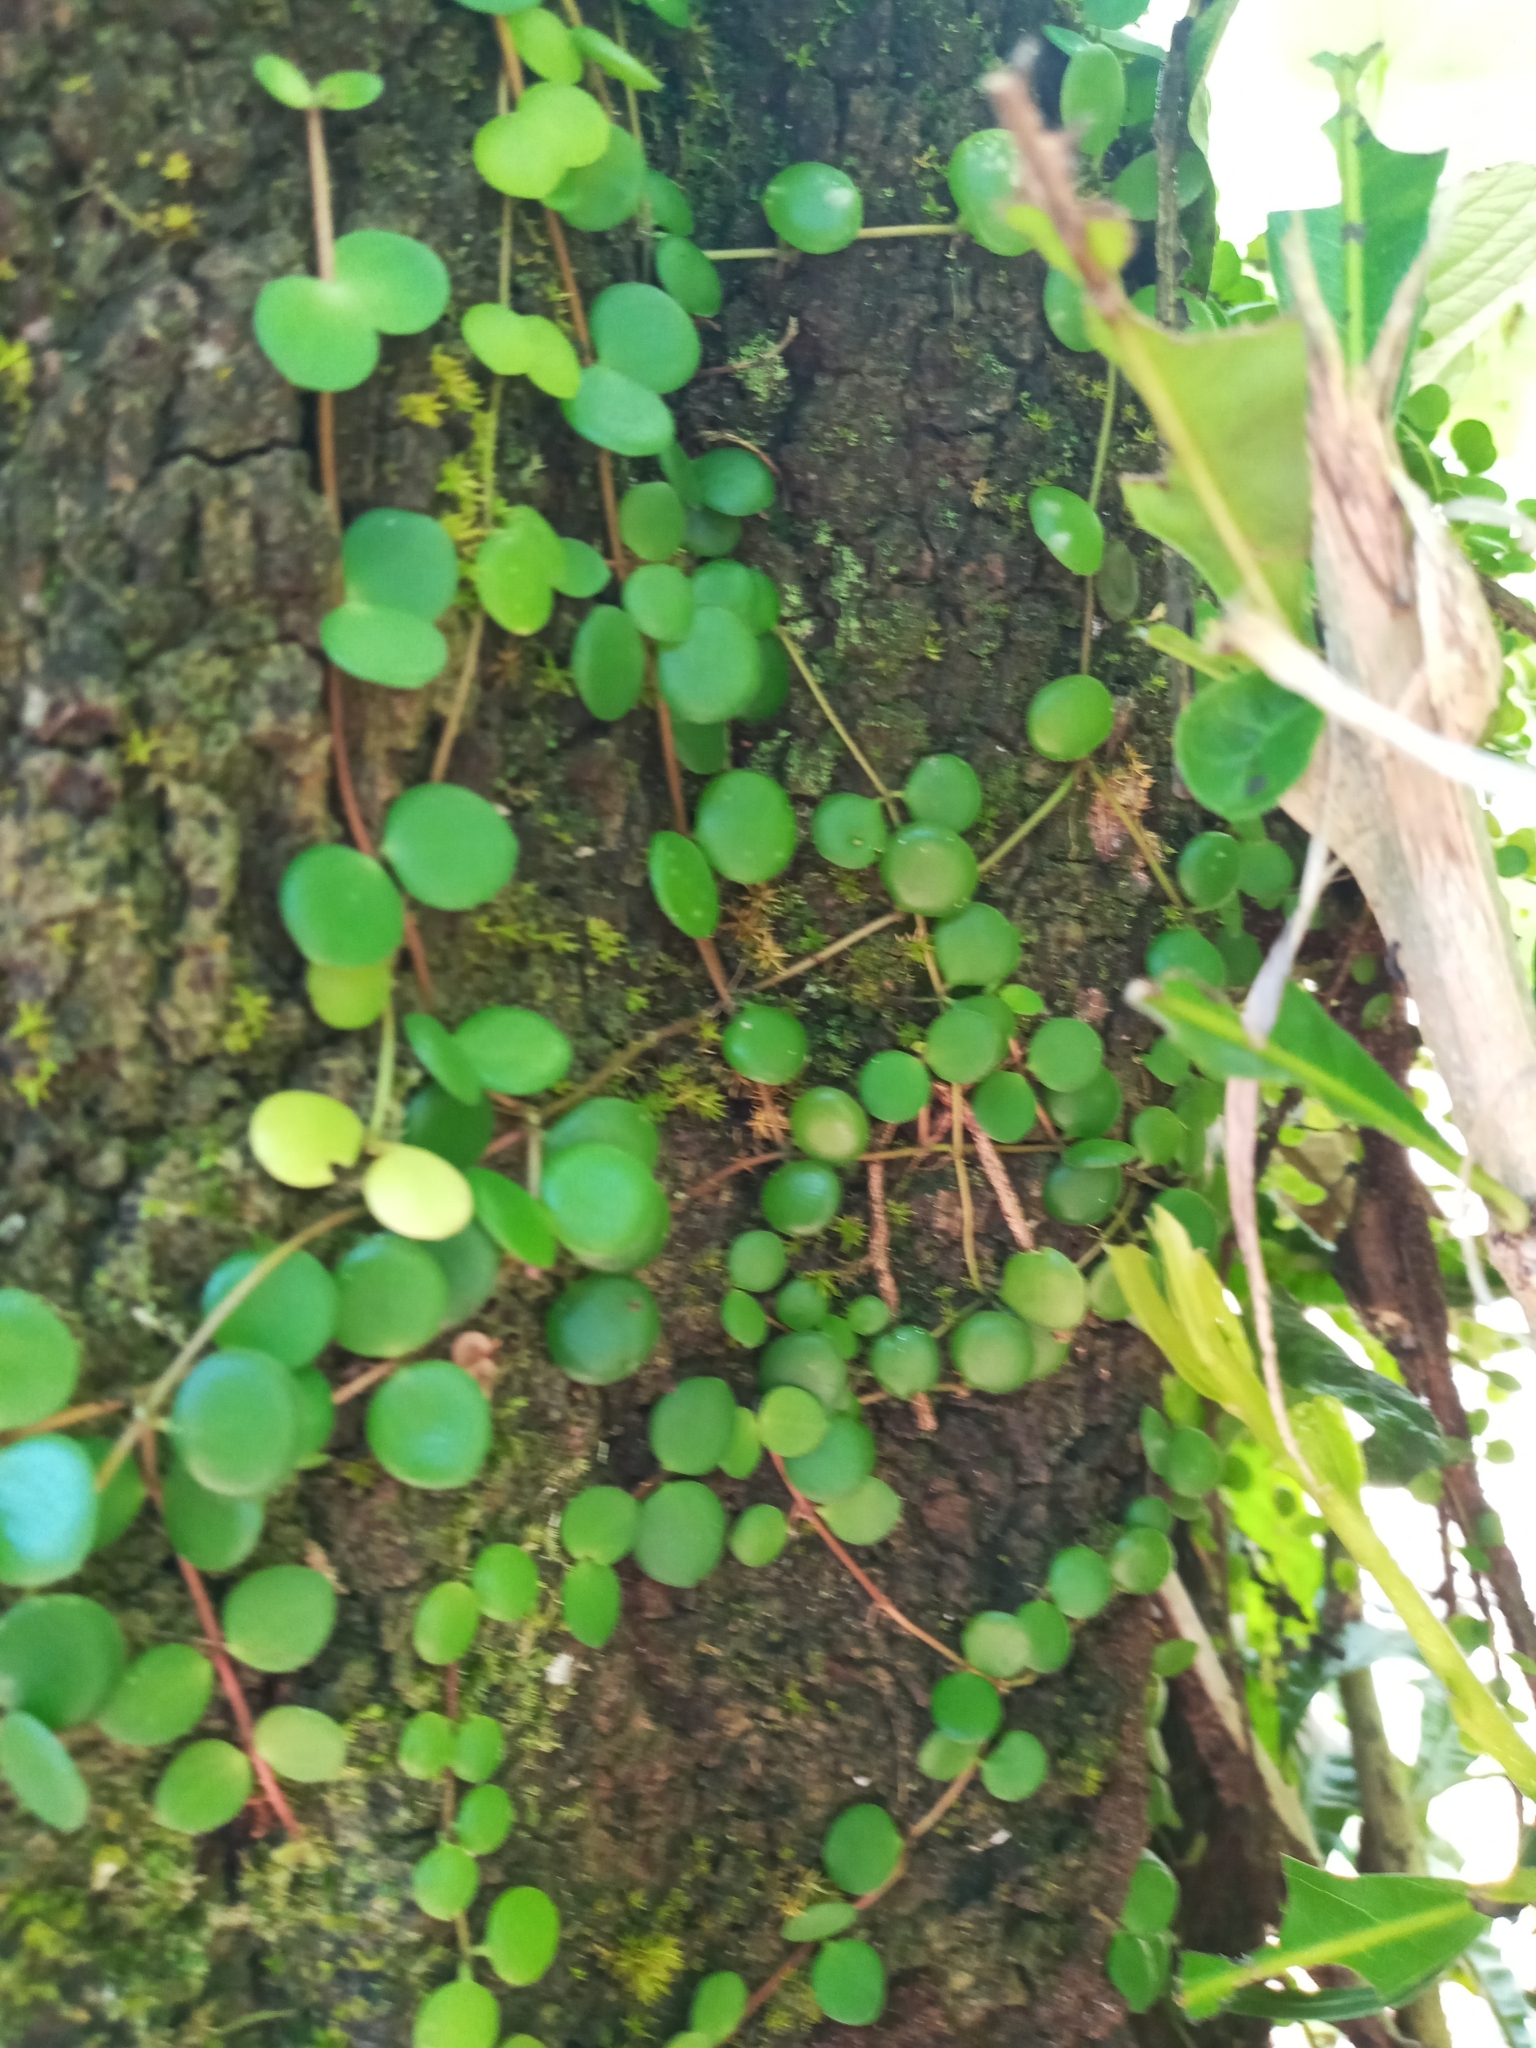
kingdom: Plantae
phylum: Tracheophyta
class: Magnoliopsida
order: Piperales
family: Piperaceae
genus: Peperomia
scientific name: Peperomia cyclophylla
